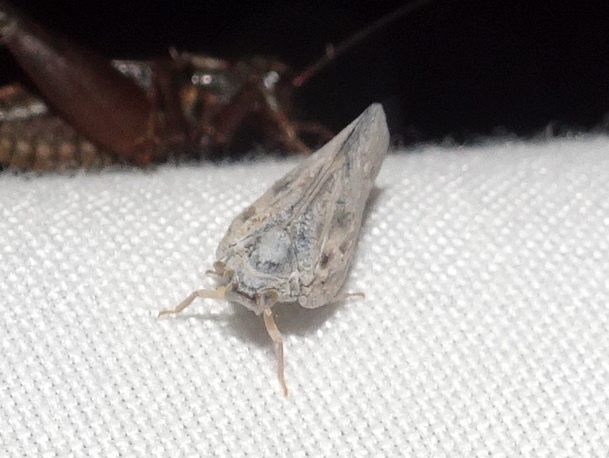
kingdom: Animalia
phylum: Arthropoda
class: Insecta
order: Hemiptera
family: Flatidae
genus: Metcalfa
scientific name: Metcalfa pruinosa
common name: Citrus flatid planthopper
